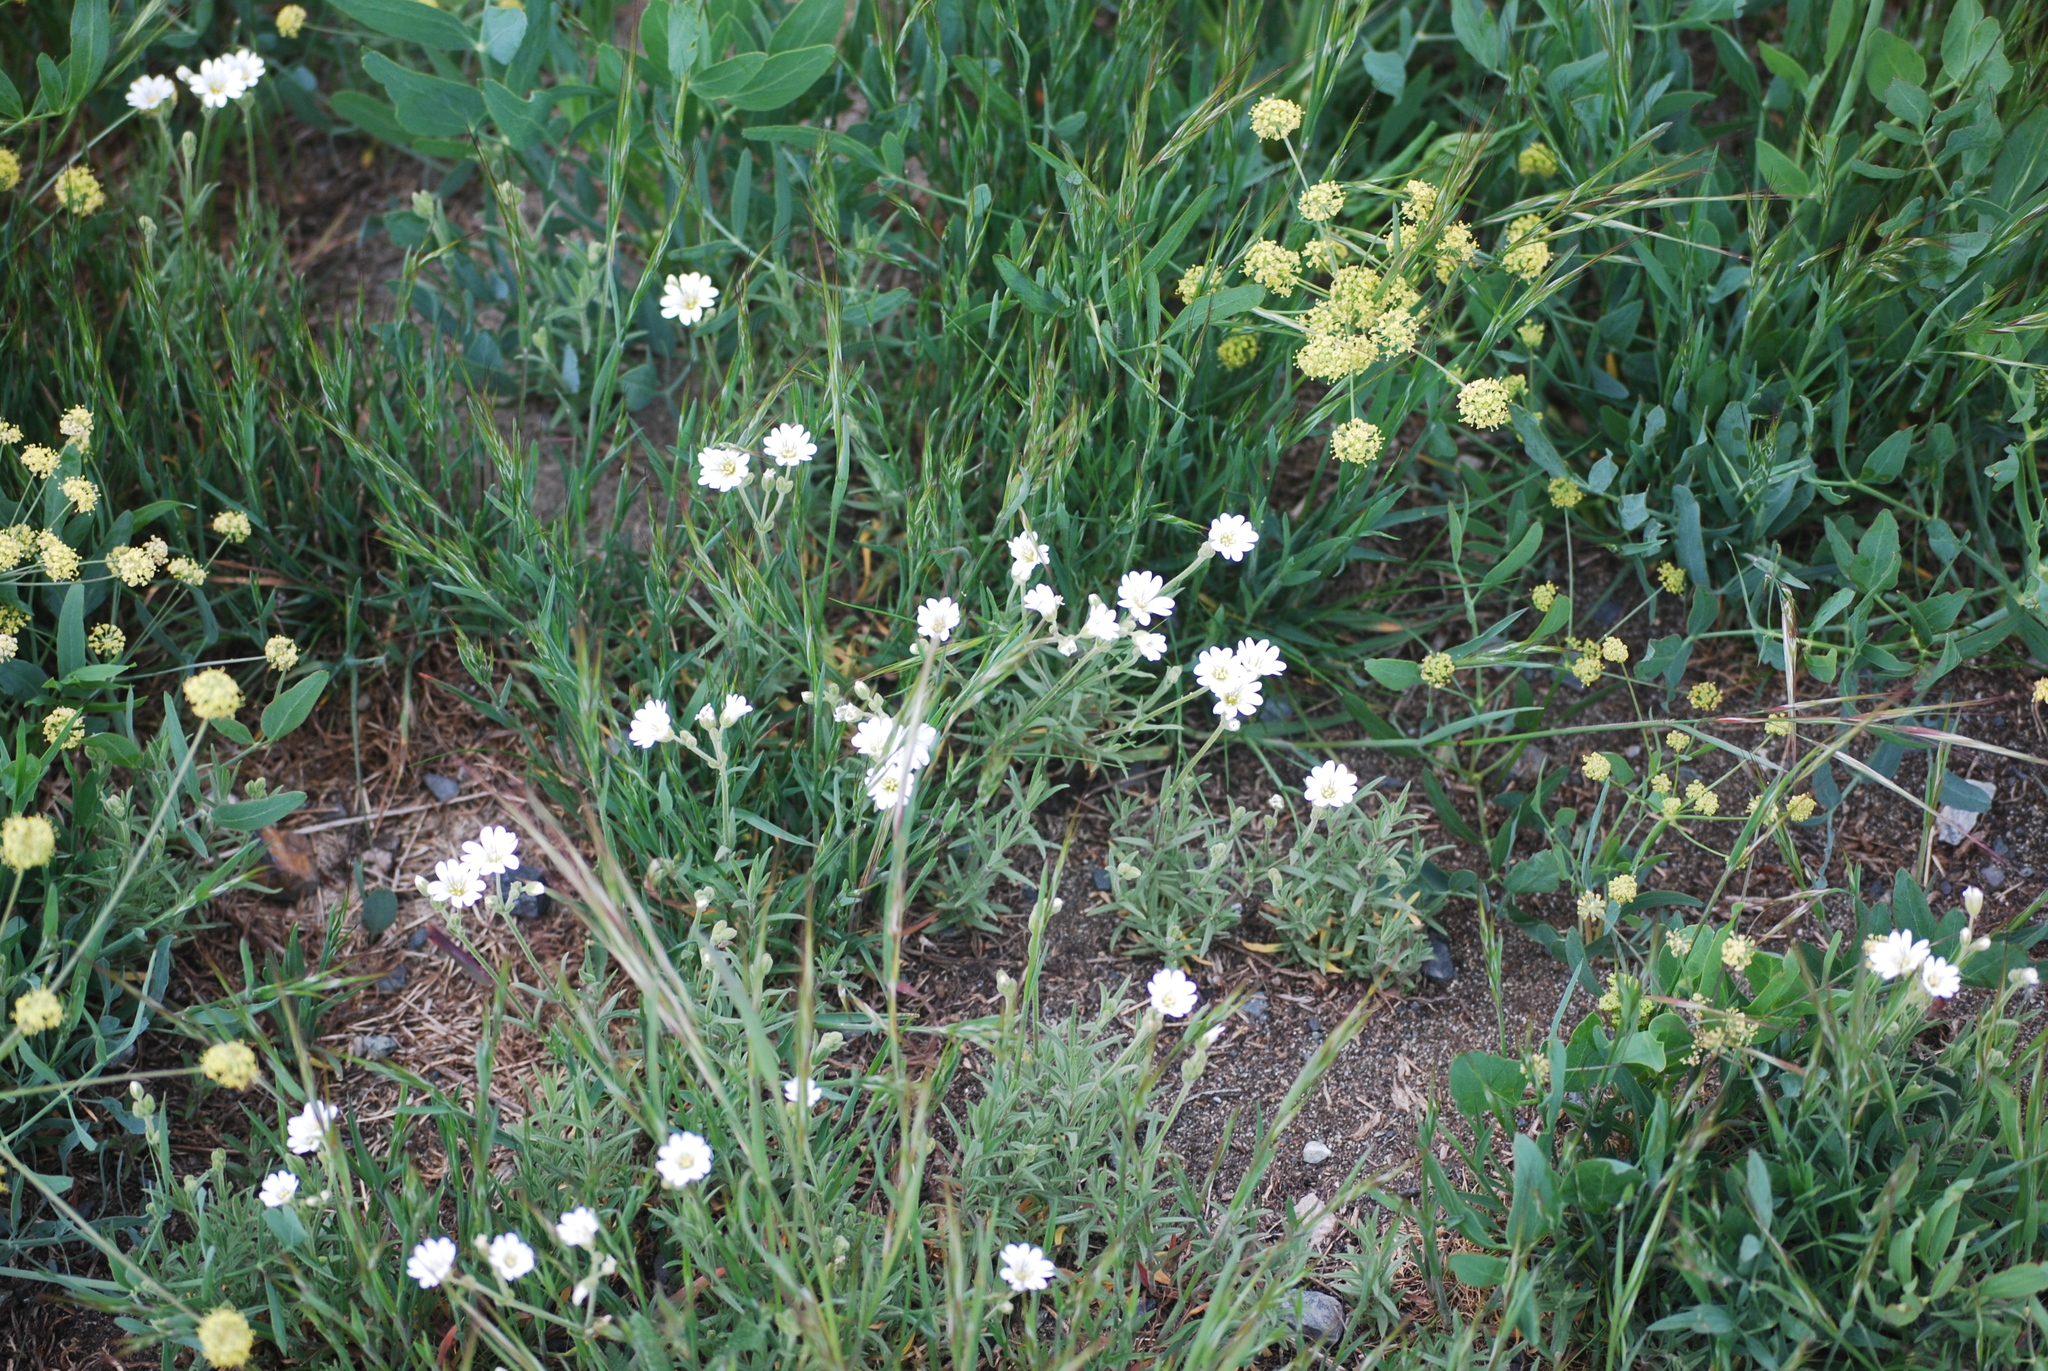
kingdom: Plantae
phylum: Tracheophyta
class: Magnoliopsida
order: Caryophyllales
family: Caryophyllaceae
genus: Cerastium
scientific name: Cerastium arvense
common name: Field mouse-ear
